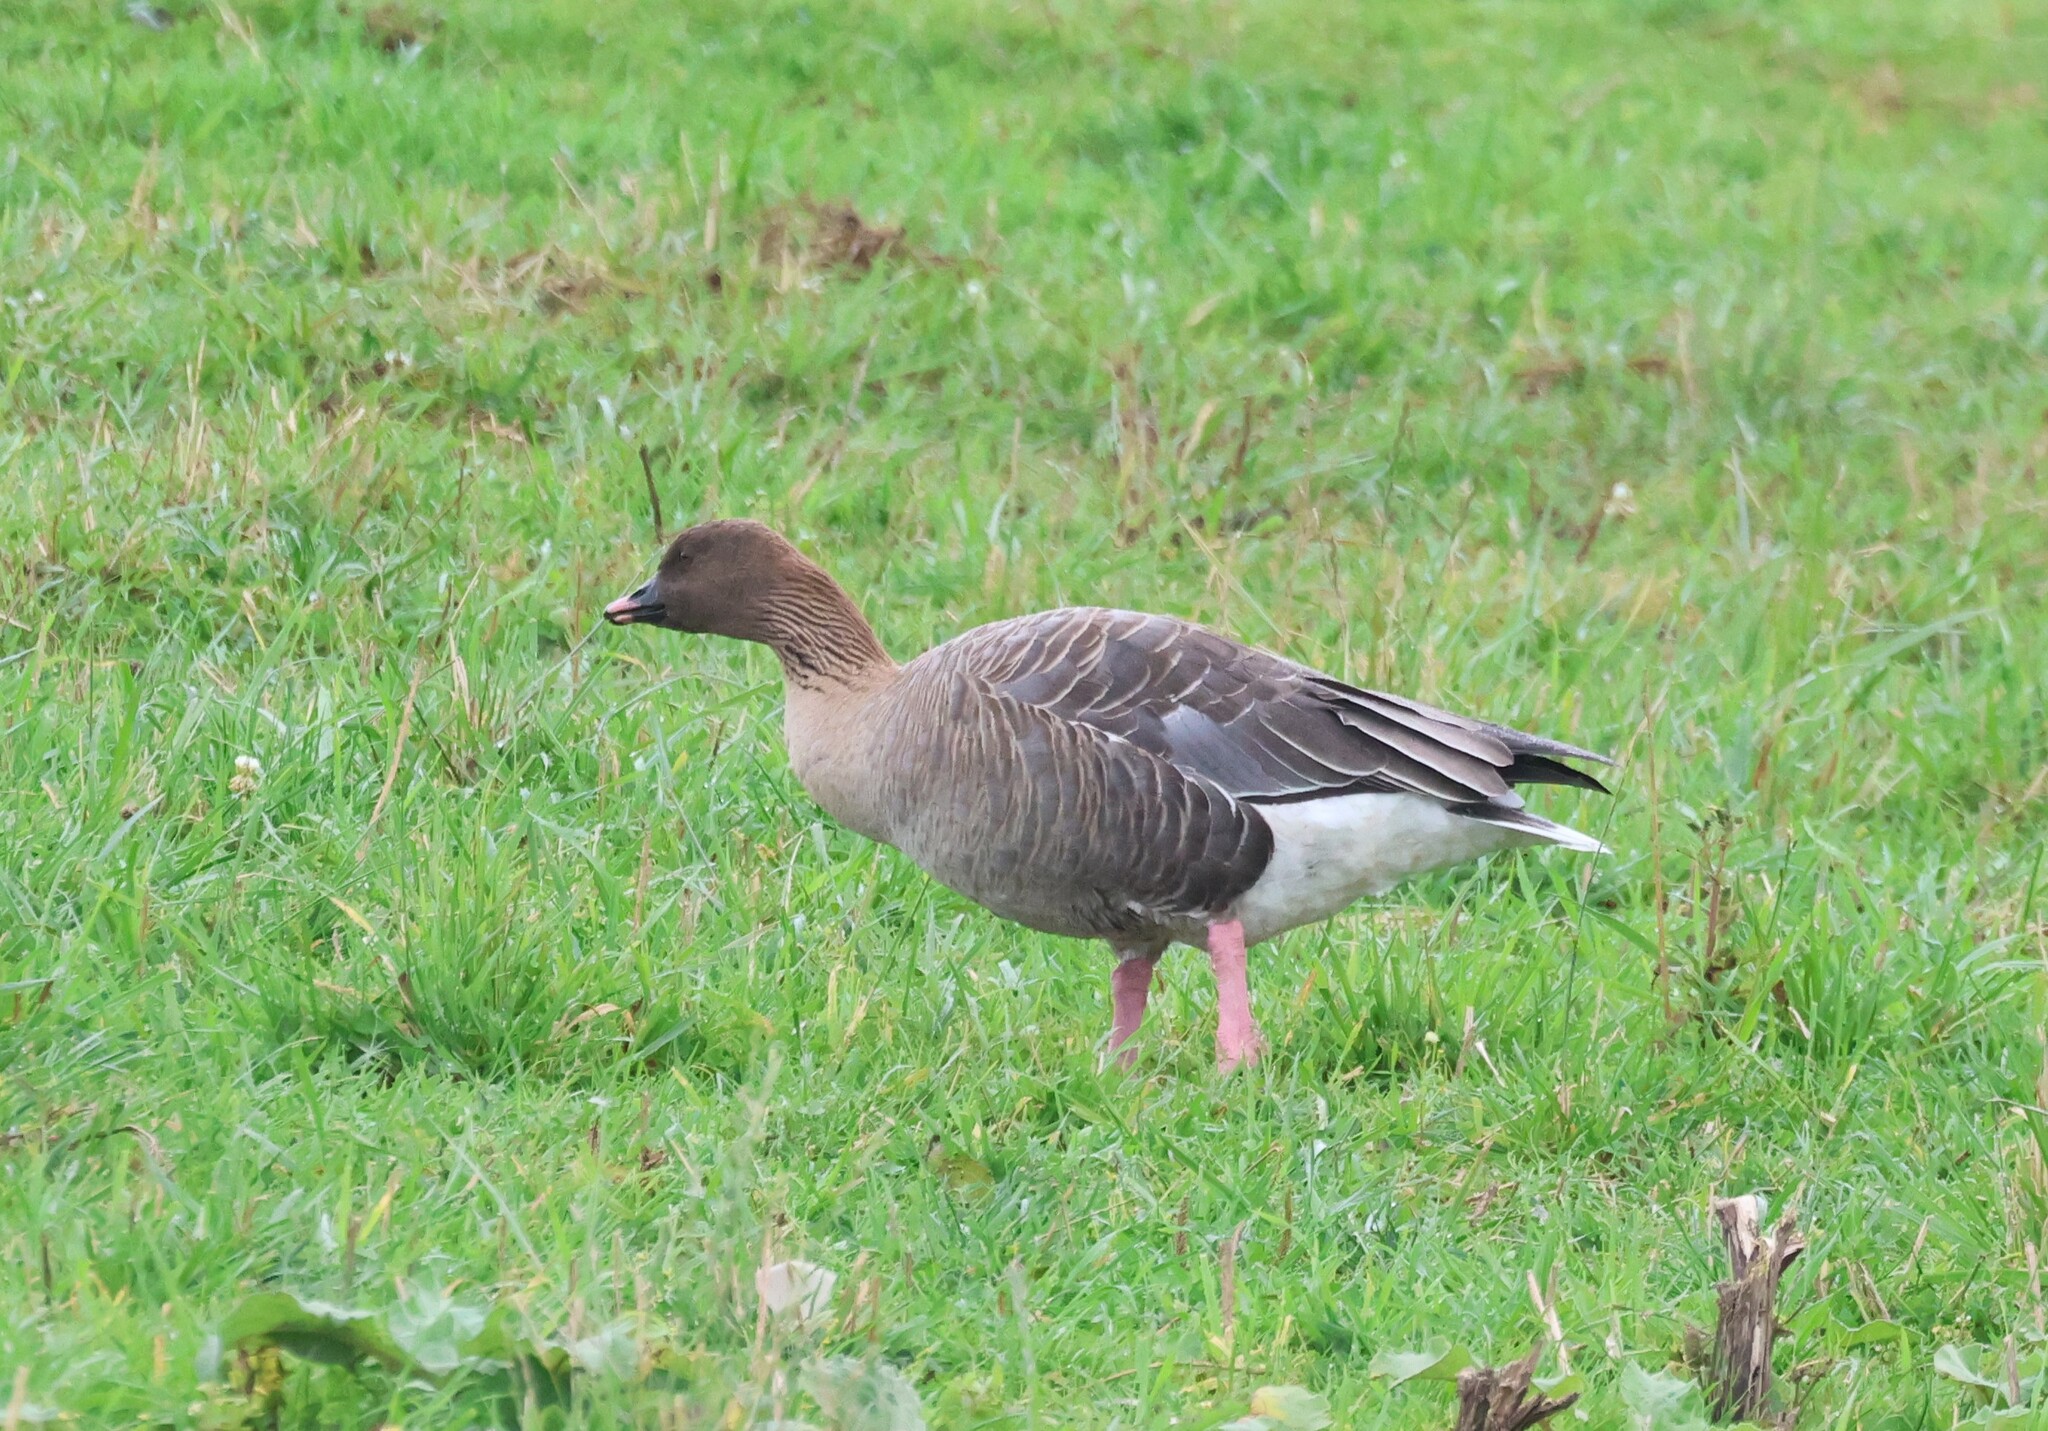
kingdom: Animalia
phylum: Chordata
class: Aves
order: Anseriformes
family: Anatidae
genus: Anser
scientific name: Anser brachyrhynchus
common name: Pink-footed goose
